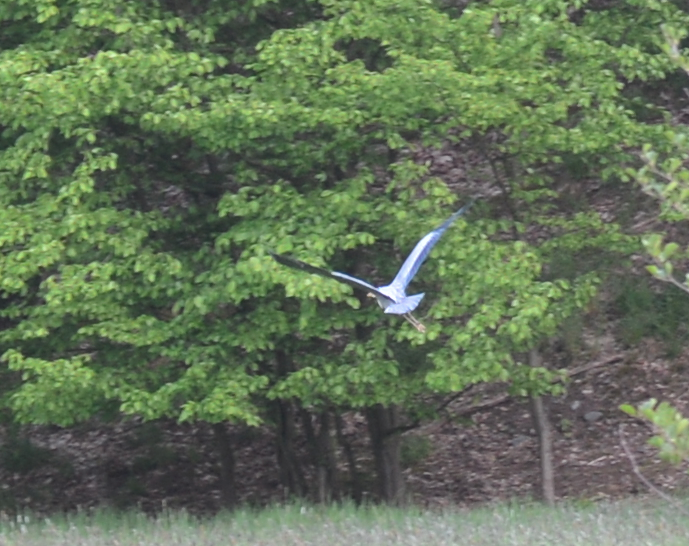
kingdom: Animalia
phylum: Chordata
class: Aves
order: Pelecaniformes
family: Ardeidae
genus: Ardea
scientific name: Ardea cinerea
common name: Grey heron
